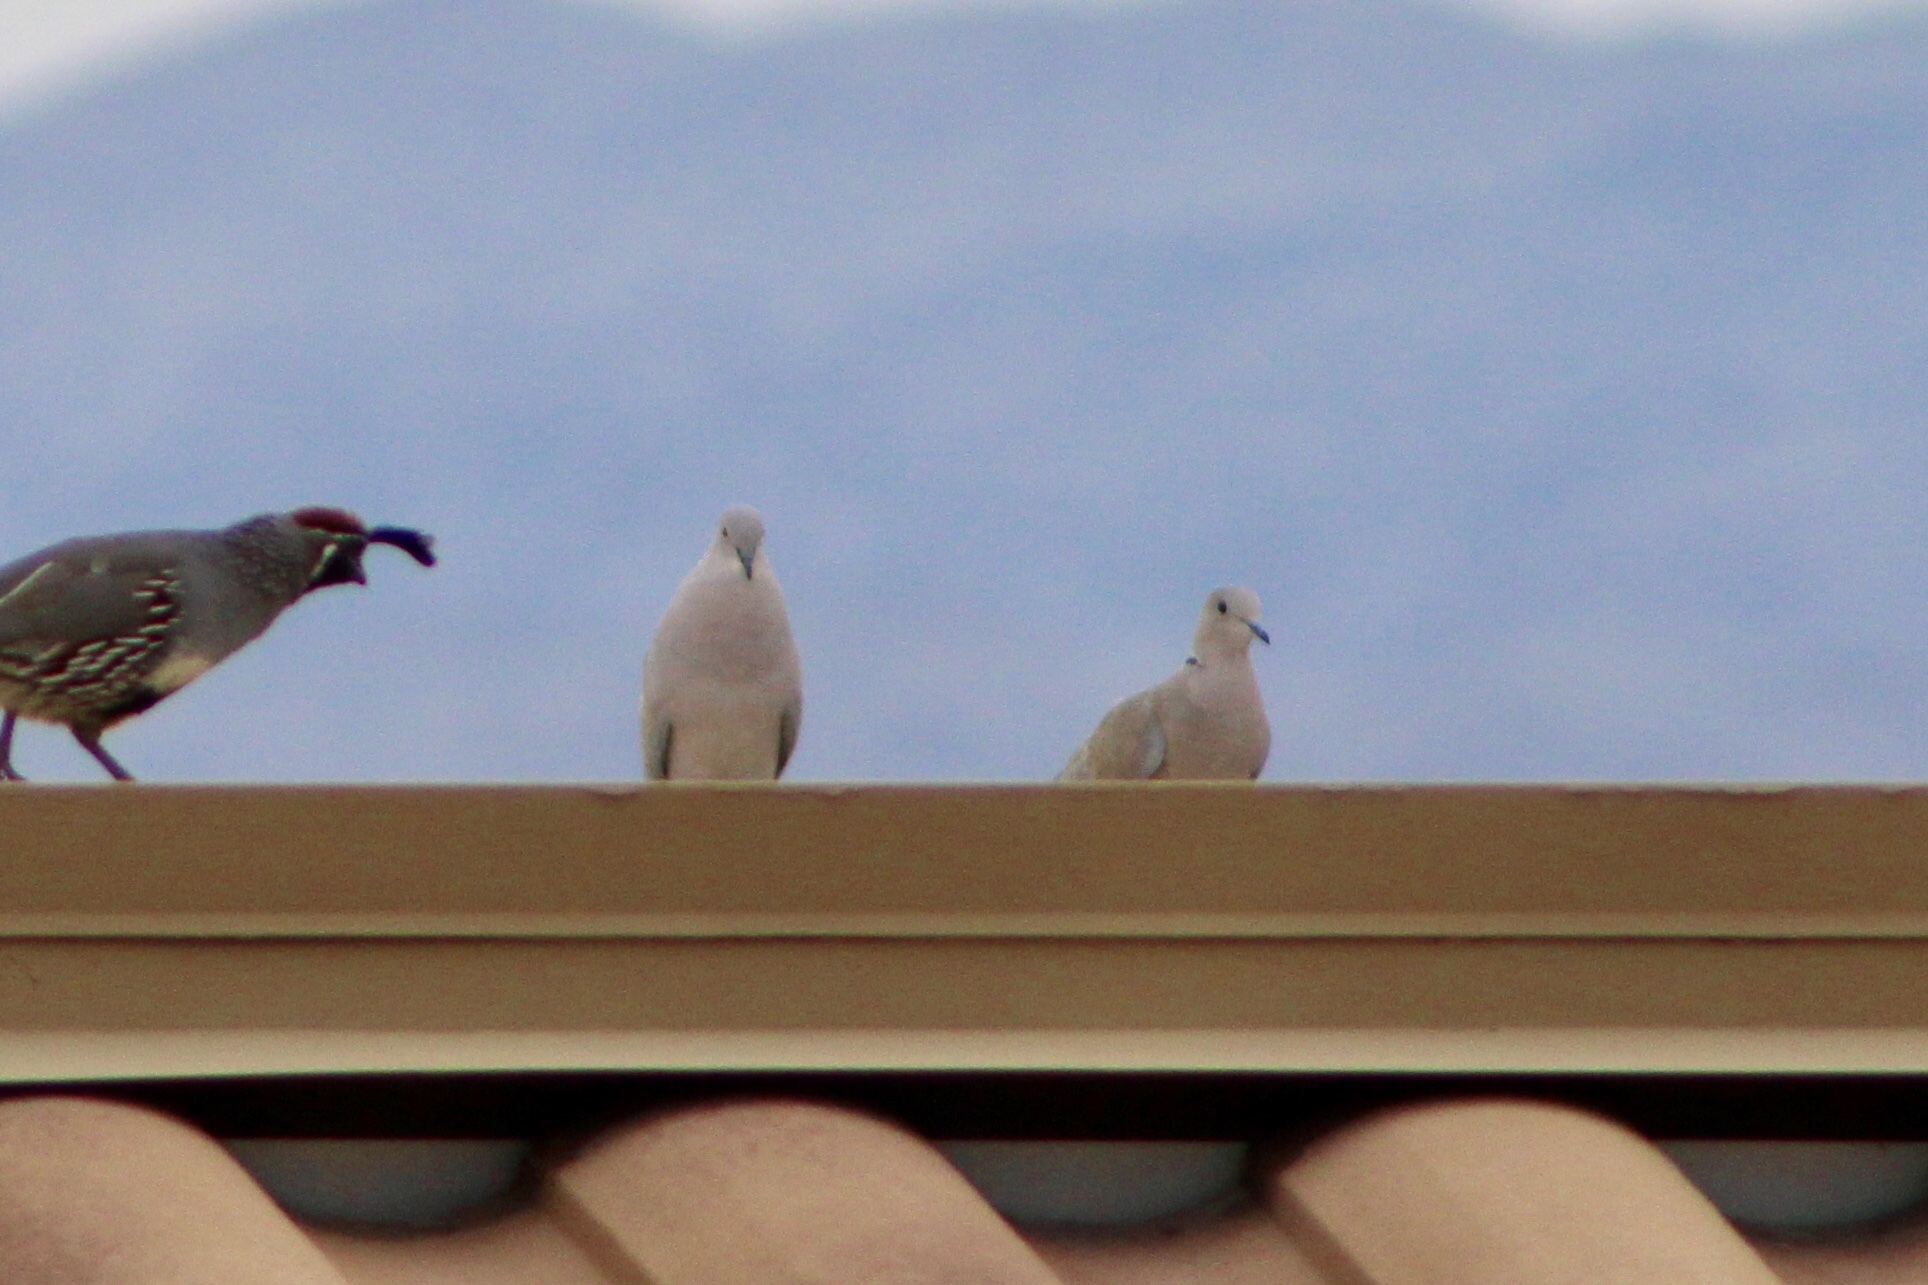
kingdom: Animalia
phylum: Chordata
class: Aves
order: Columbiformes
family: Columbidae
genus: Streptopelia
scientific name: Streptopelia decaocto
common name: Eurasian collared dove
